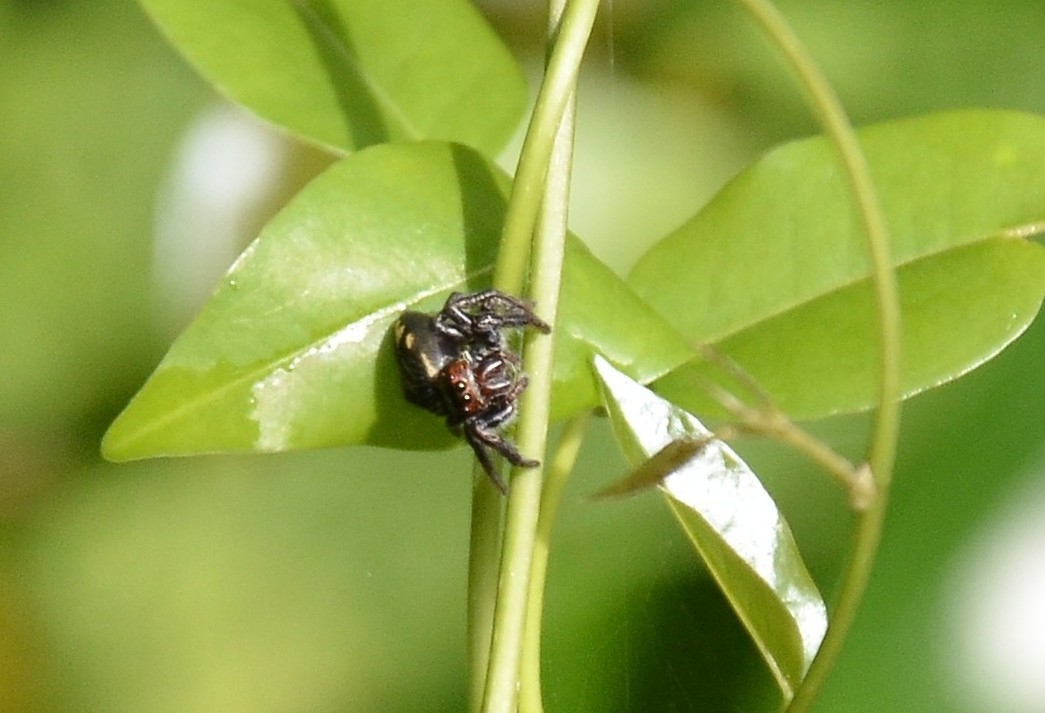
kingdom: Animalia
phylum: Arthropoda
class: Arachnida
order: Araneae
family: Salticidae
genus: Carrhotus
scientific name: Carrhotus viduus
